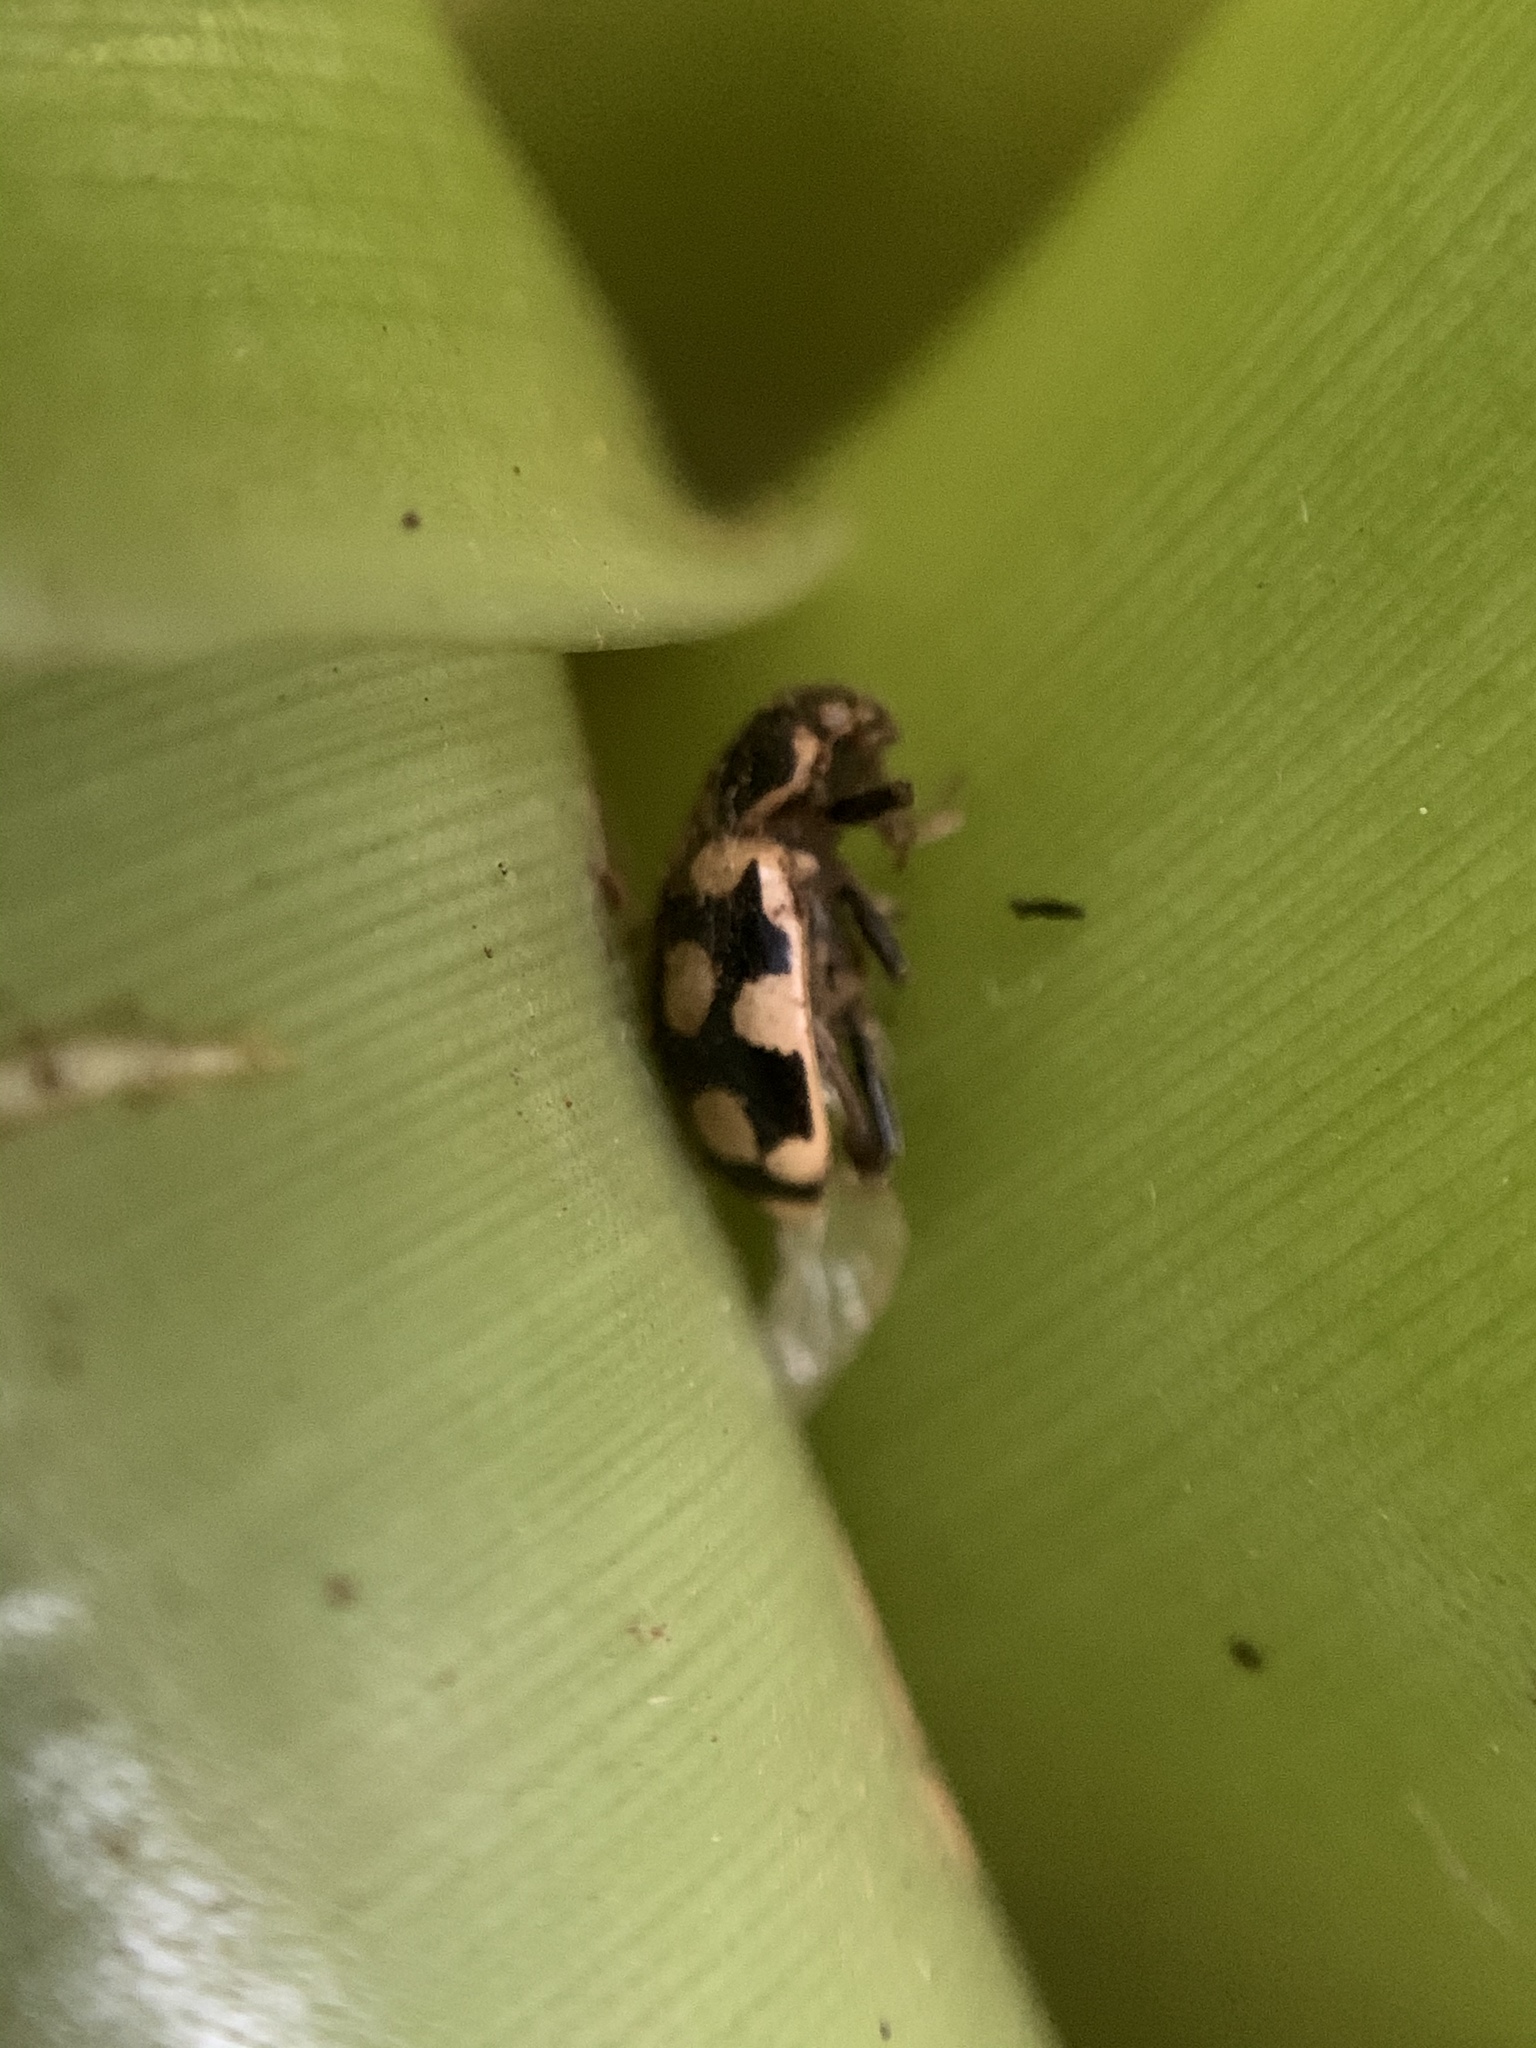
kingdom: Animalia
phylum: Arthropoda
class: Insecta
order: Coleoptera
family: Coccinellidae
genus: Eriopis
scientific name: Eriopis connexa
